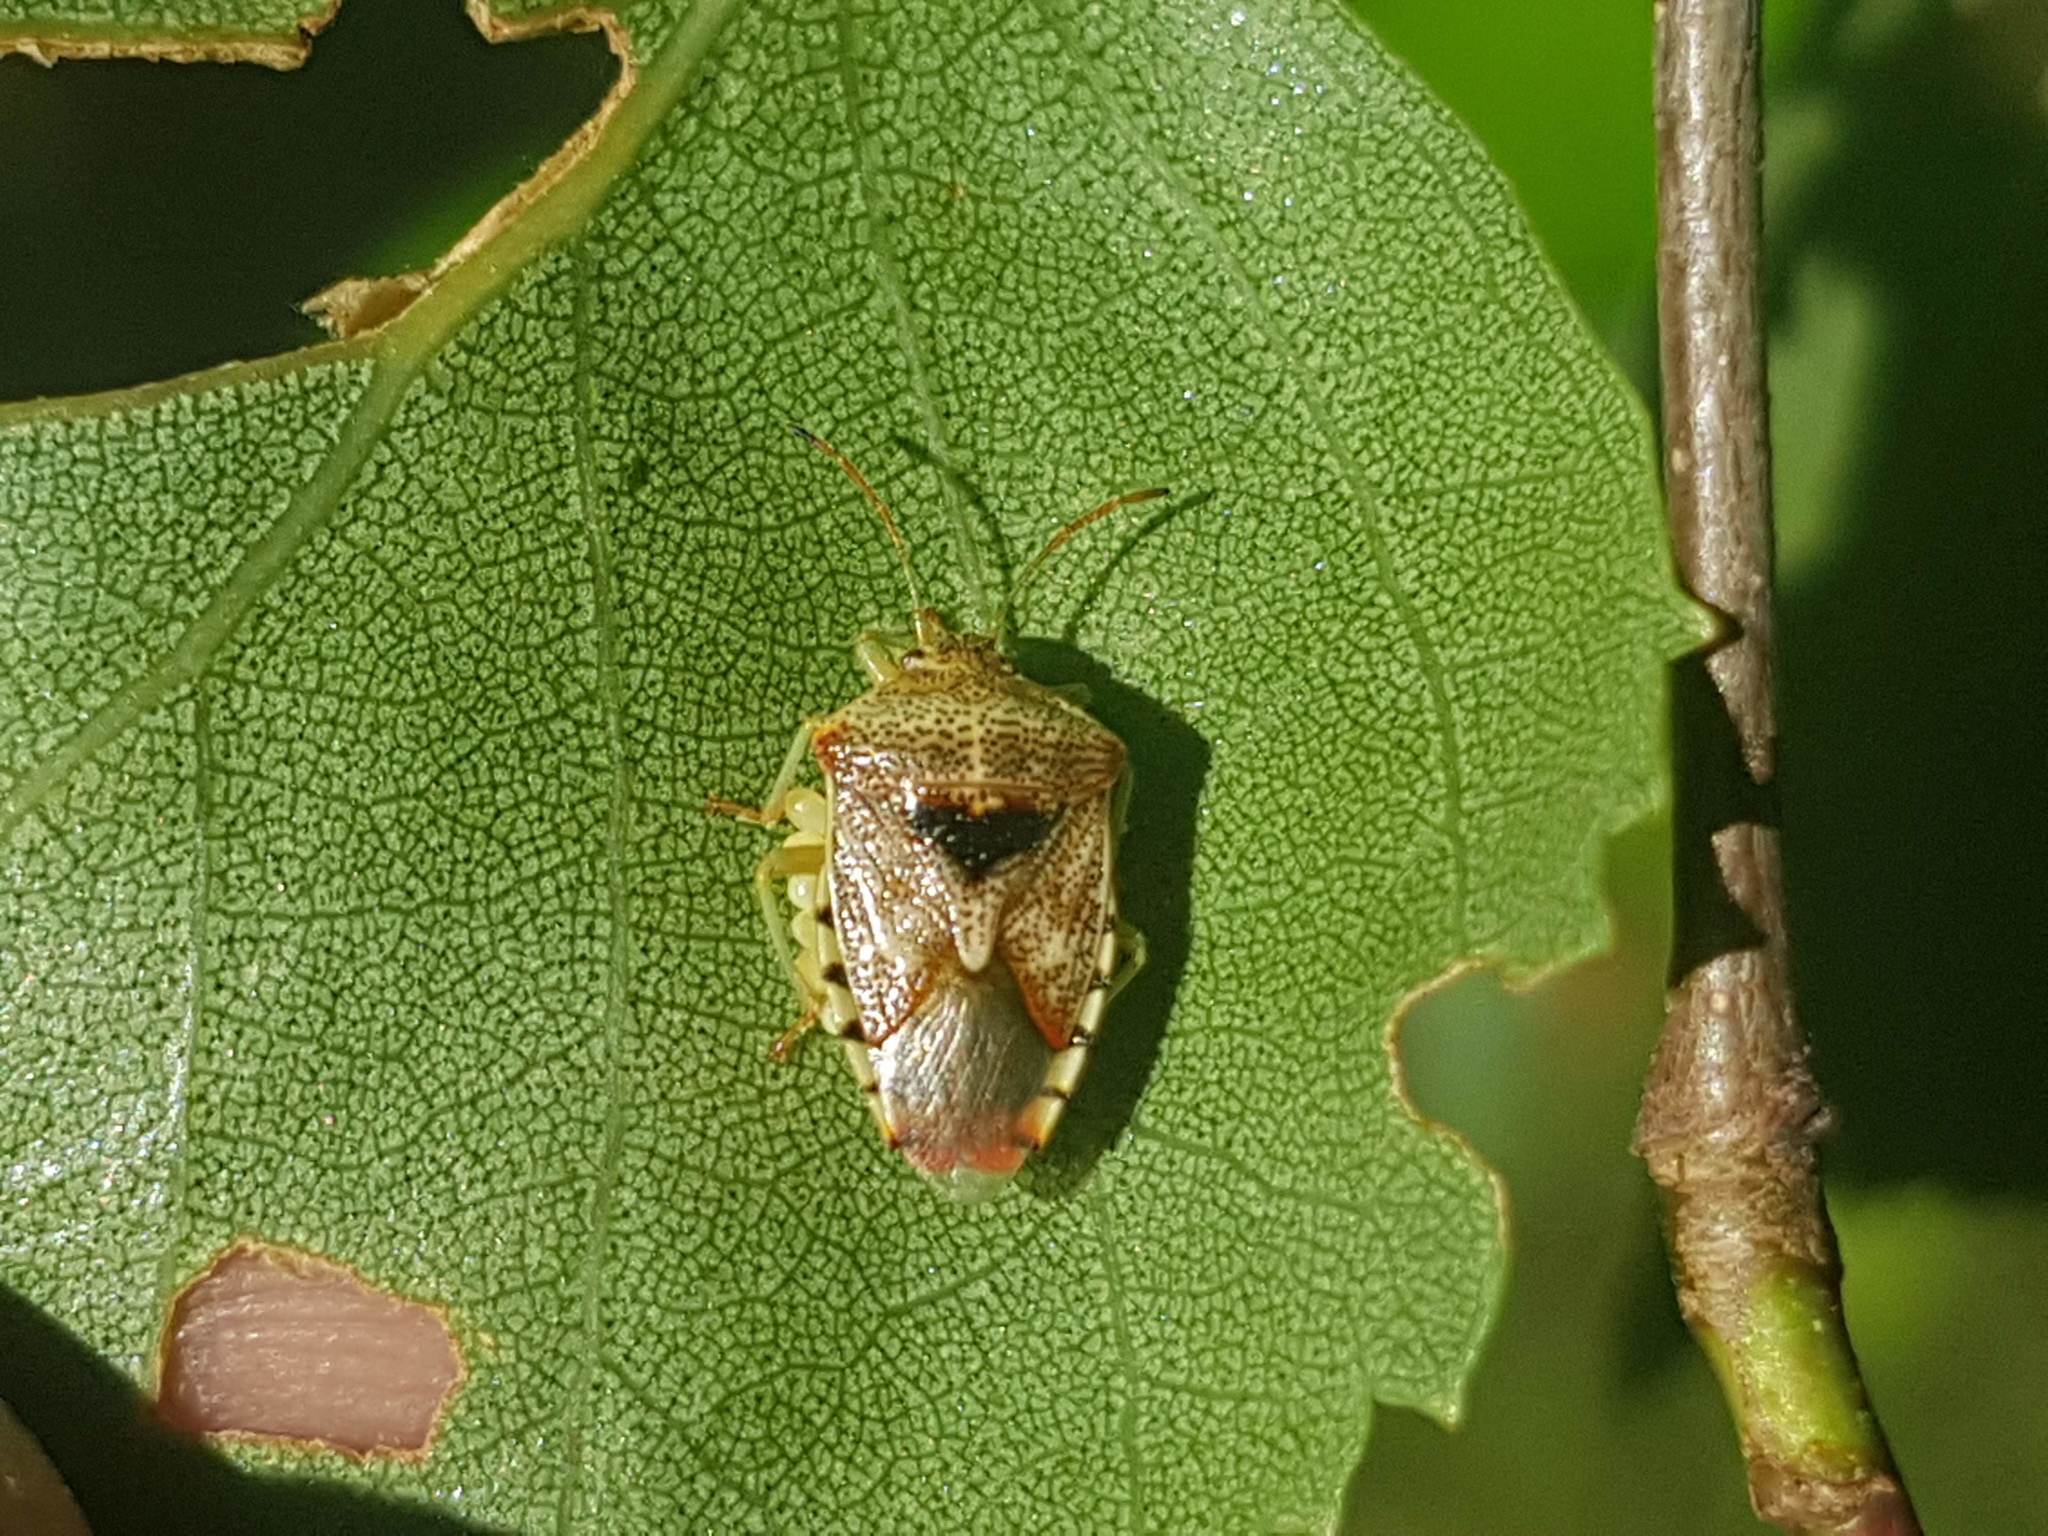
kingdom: Animalia
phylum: Arthropoda
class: Insecta
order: Hemiptera
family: Acanthosomatidae
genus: Elasmucha
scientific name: Elasmucha grisea
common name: Parent bug
